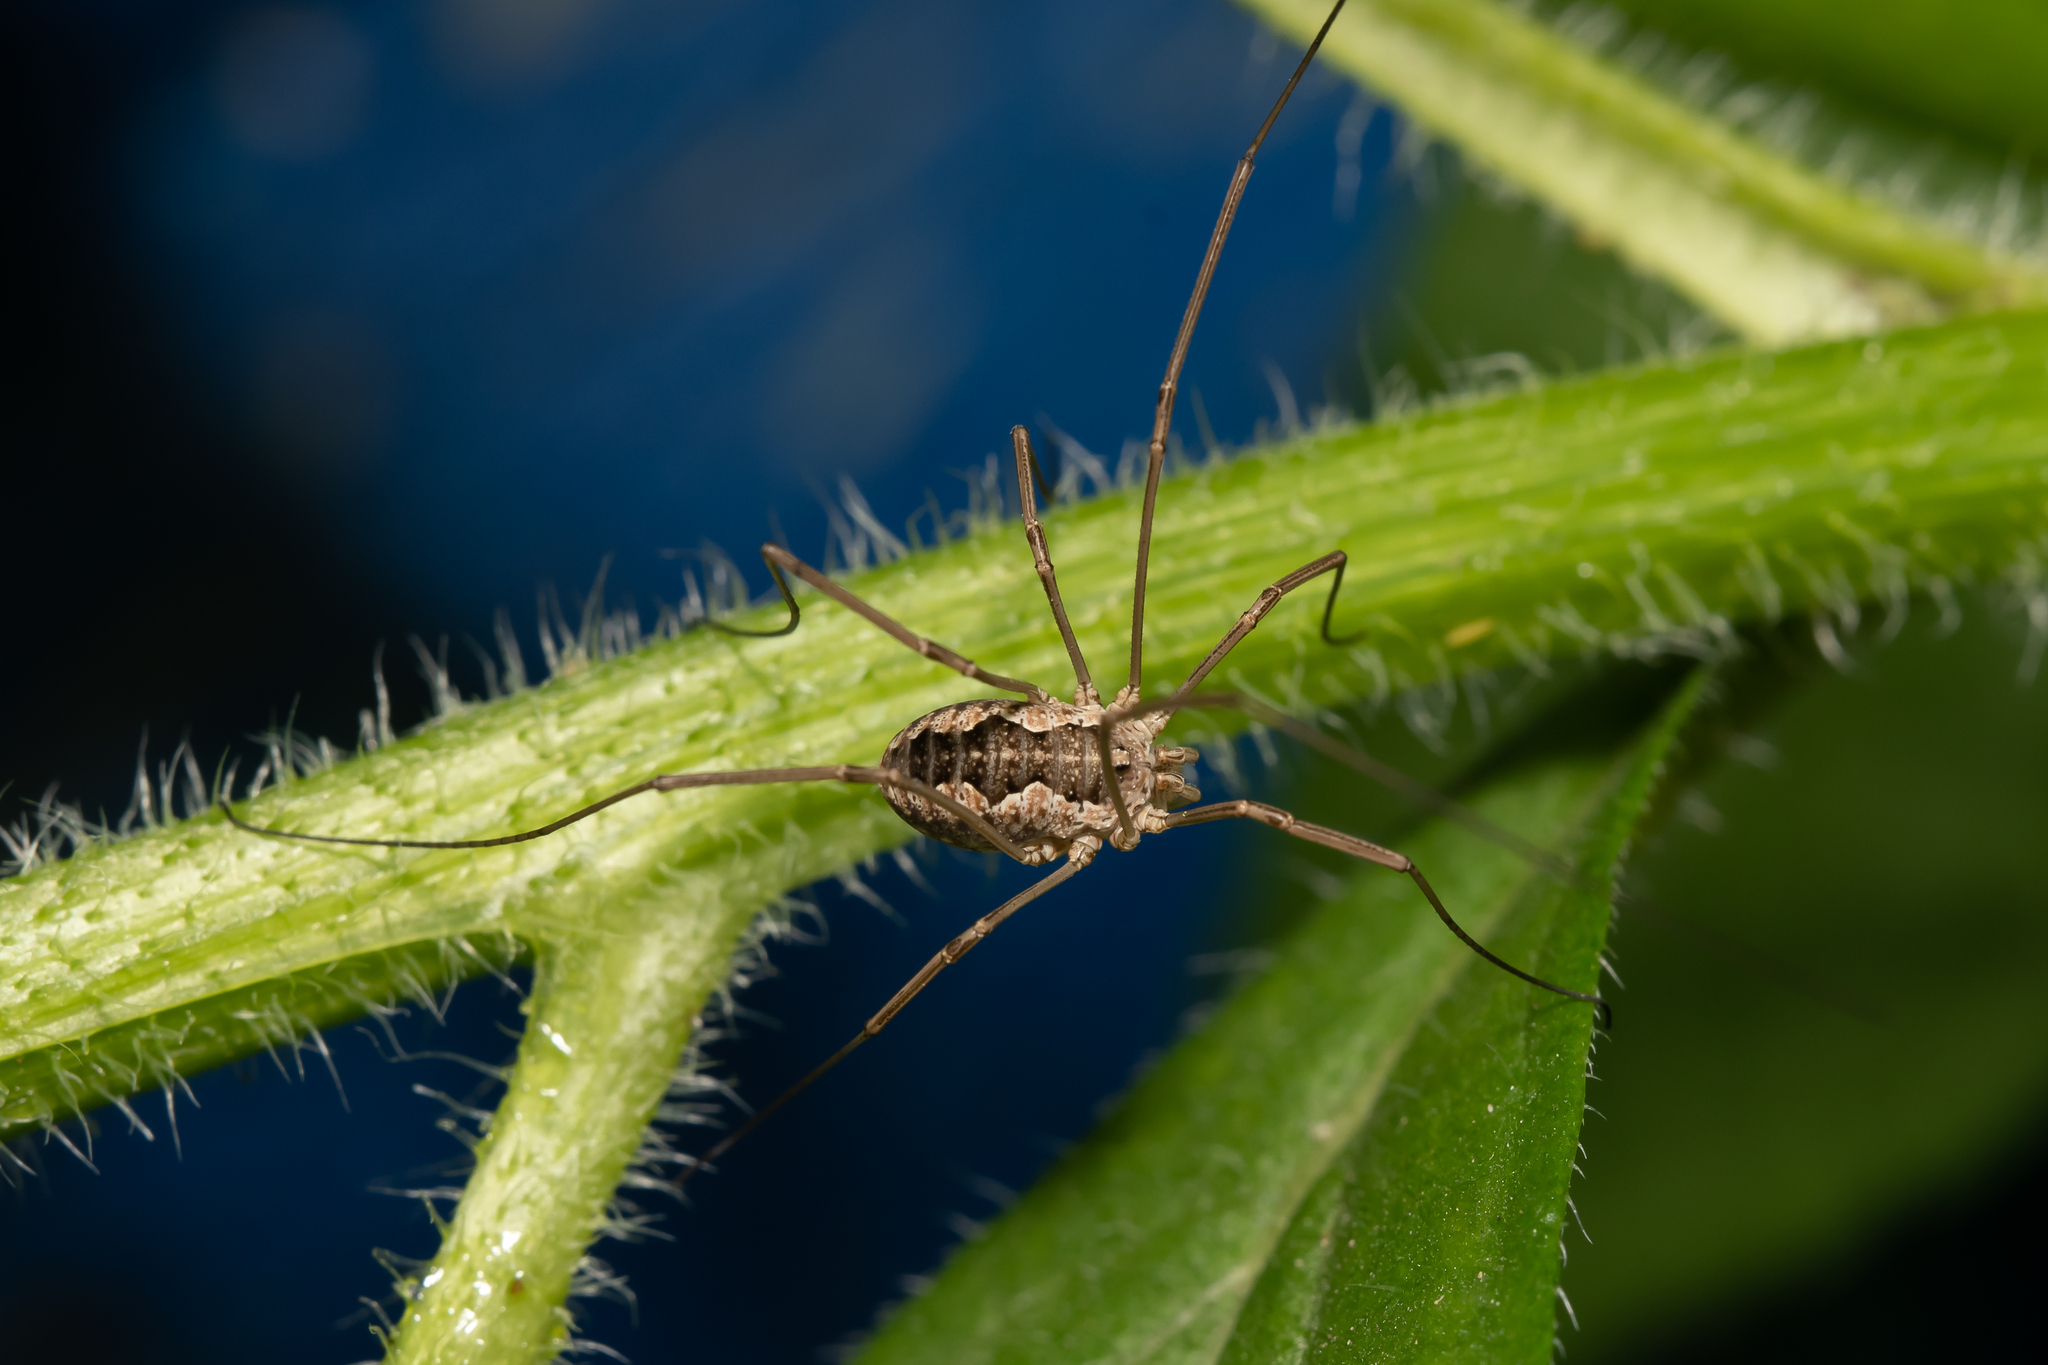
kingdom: Animalia
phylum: Arthropoda
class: Arachnida
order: Opiliones
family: Phalangiidae
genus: Phalangium
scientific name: Phalangium opilio
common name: Daddy longleg
